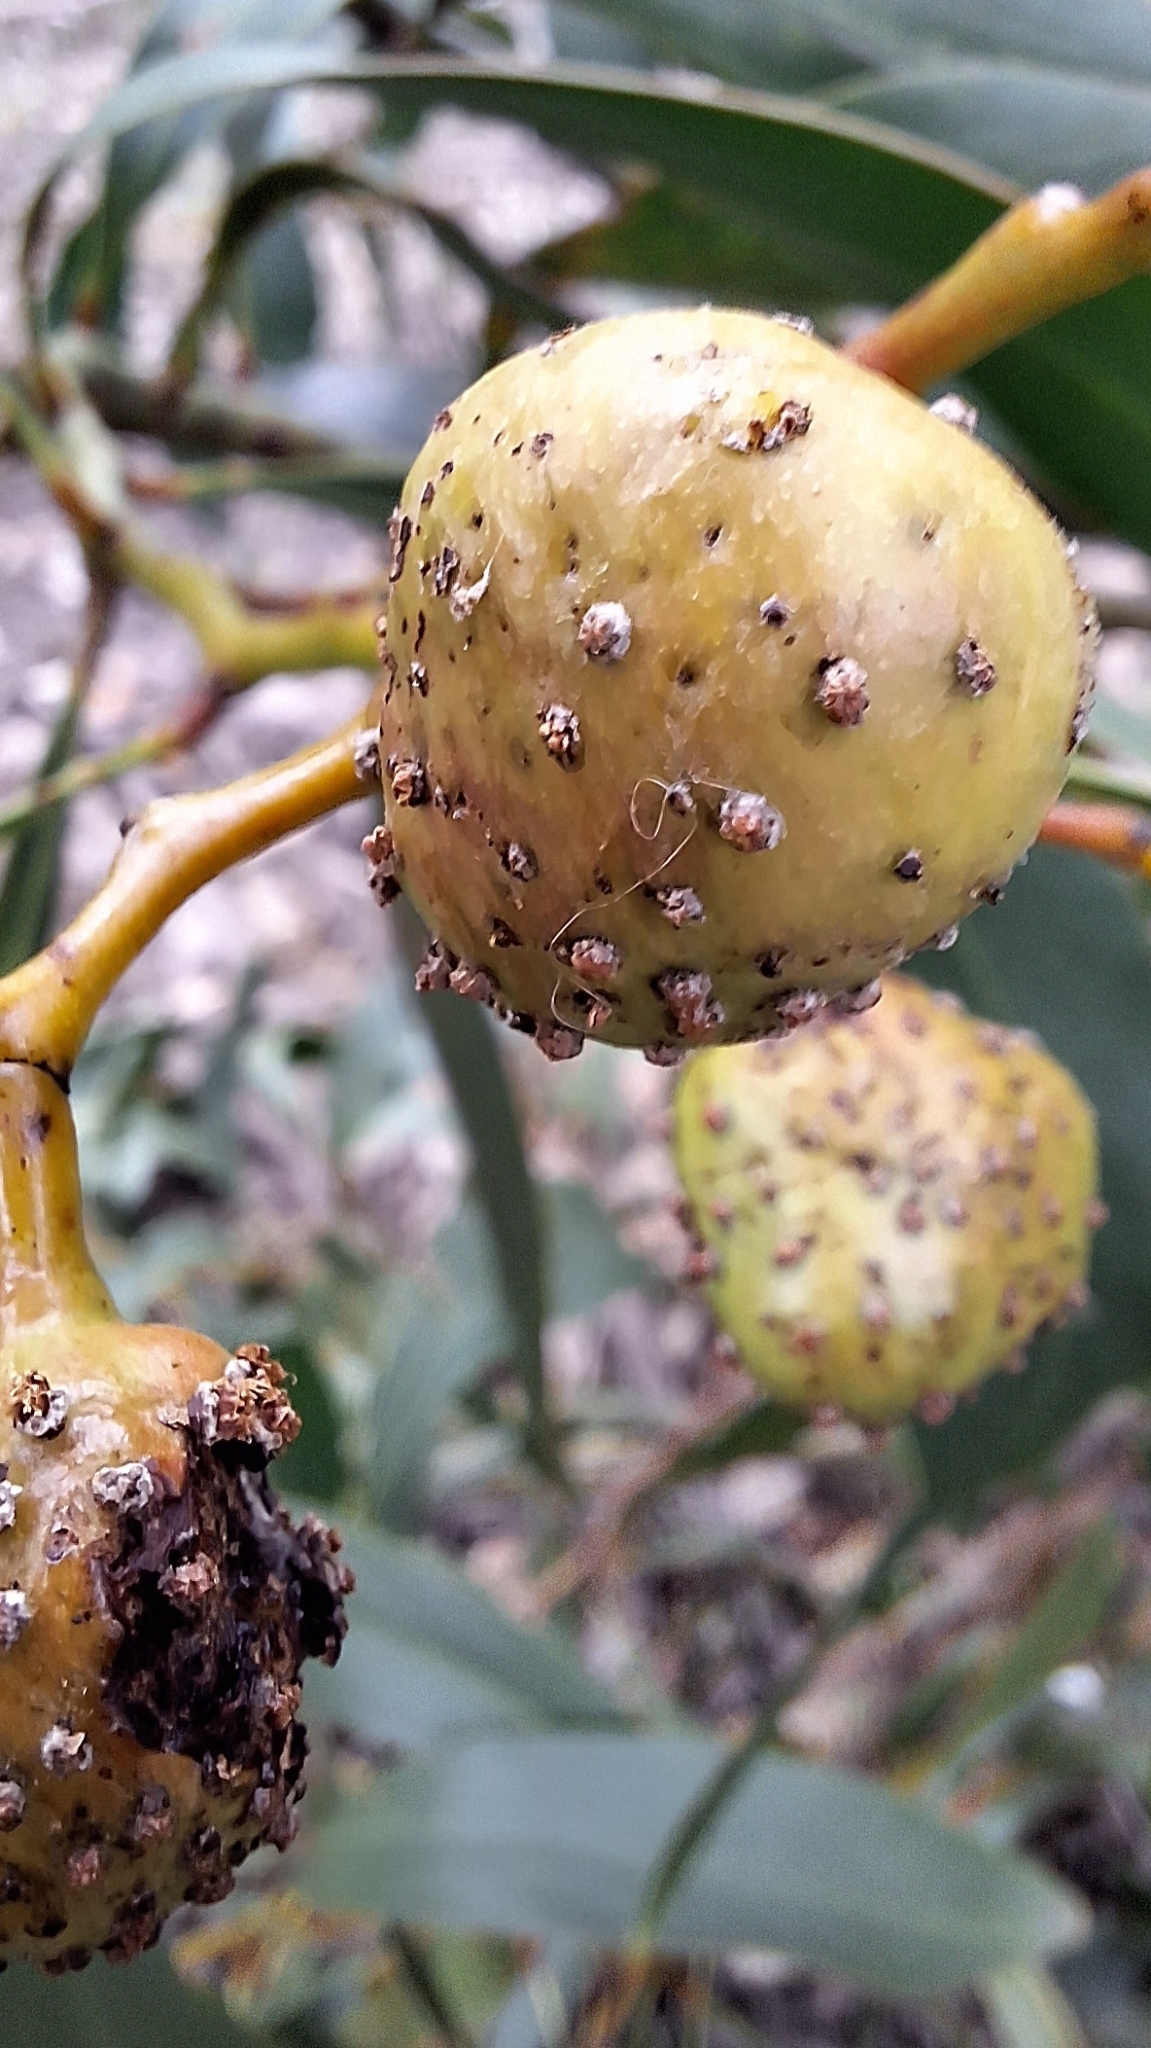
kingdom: Animalia
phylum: Arthropoda
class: Insecta
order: Hymenoptera
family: Pteromalidae
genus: Trichilogaster
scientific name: Trichilogaster signiventris
